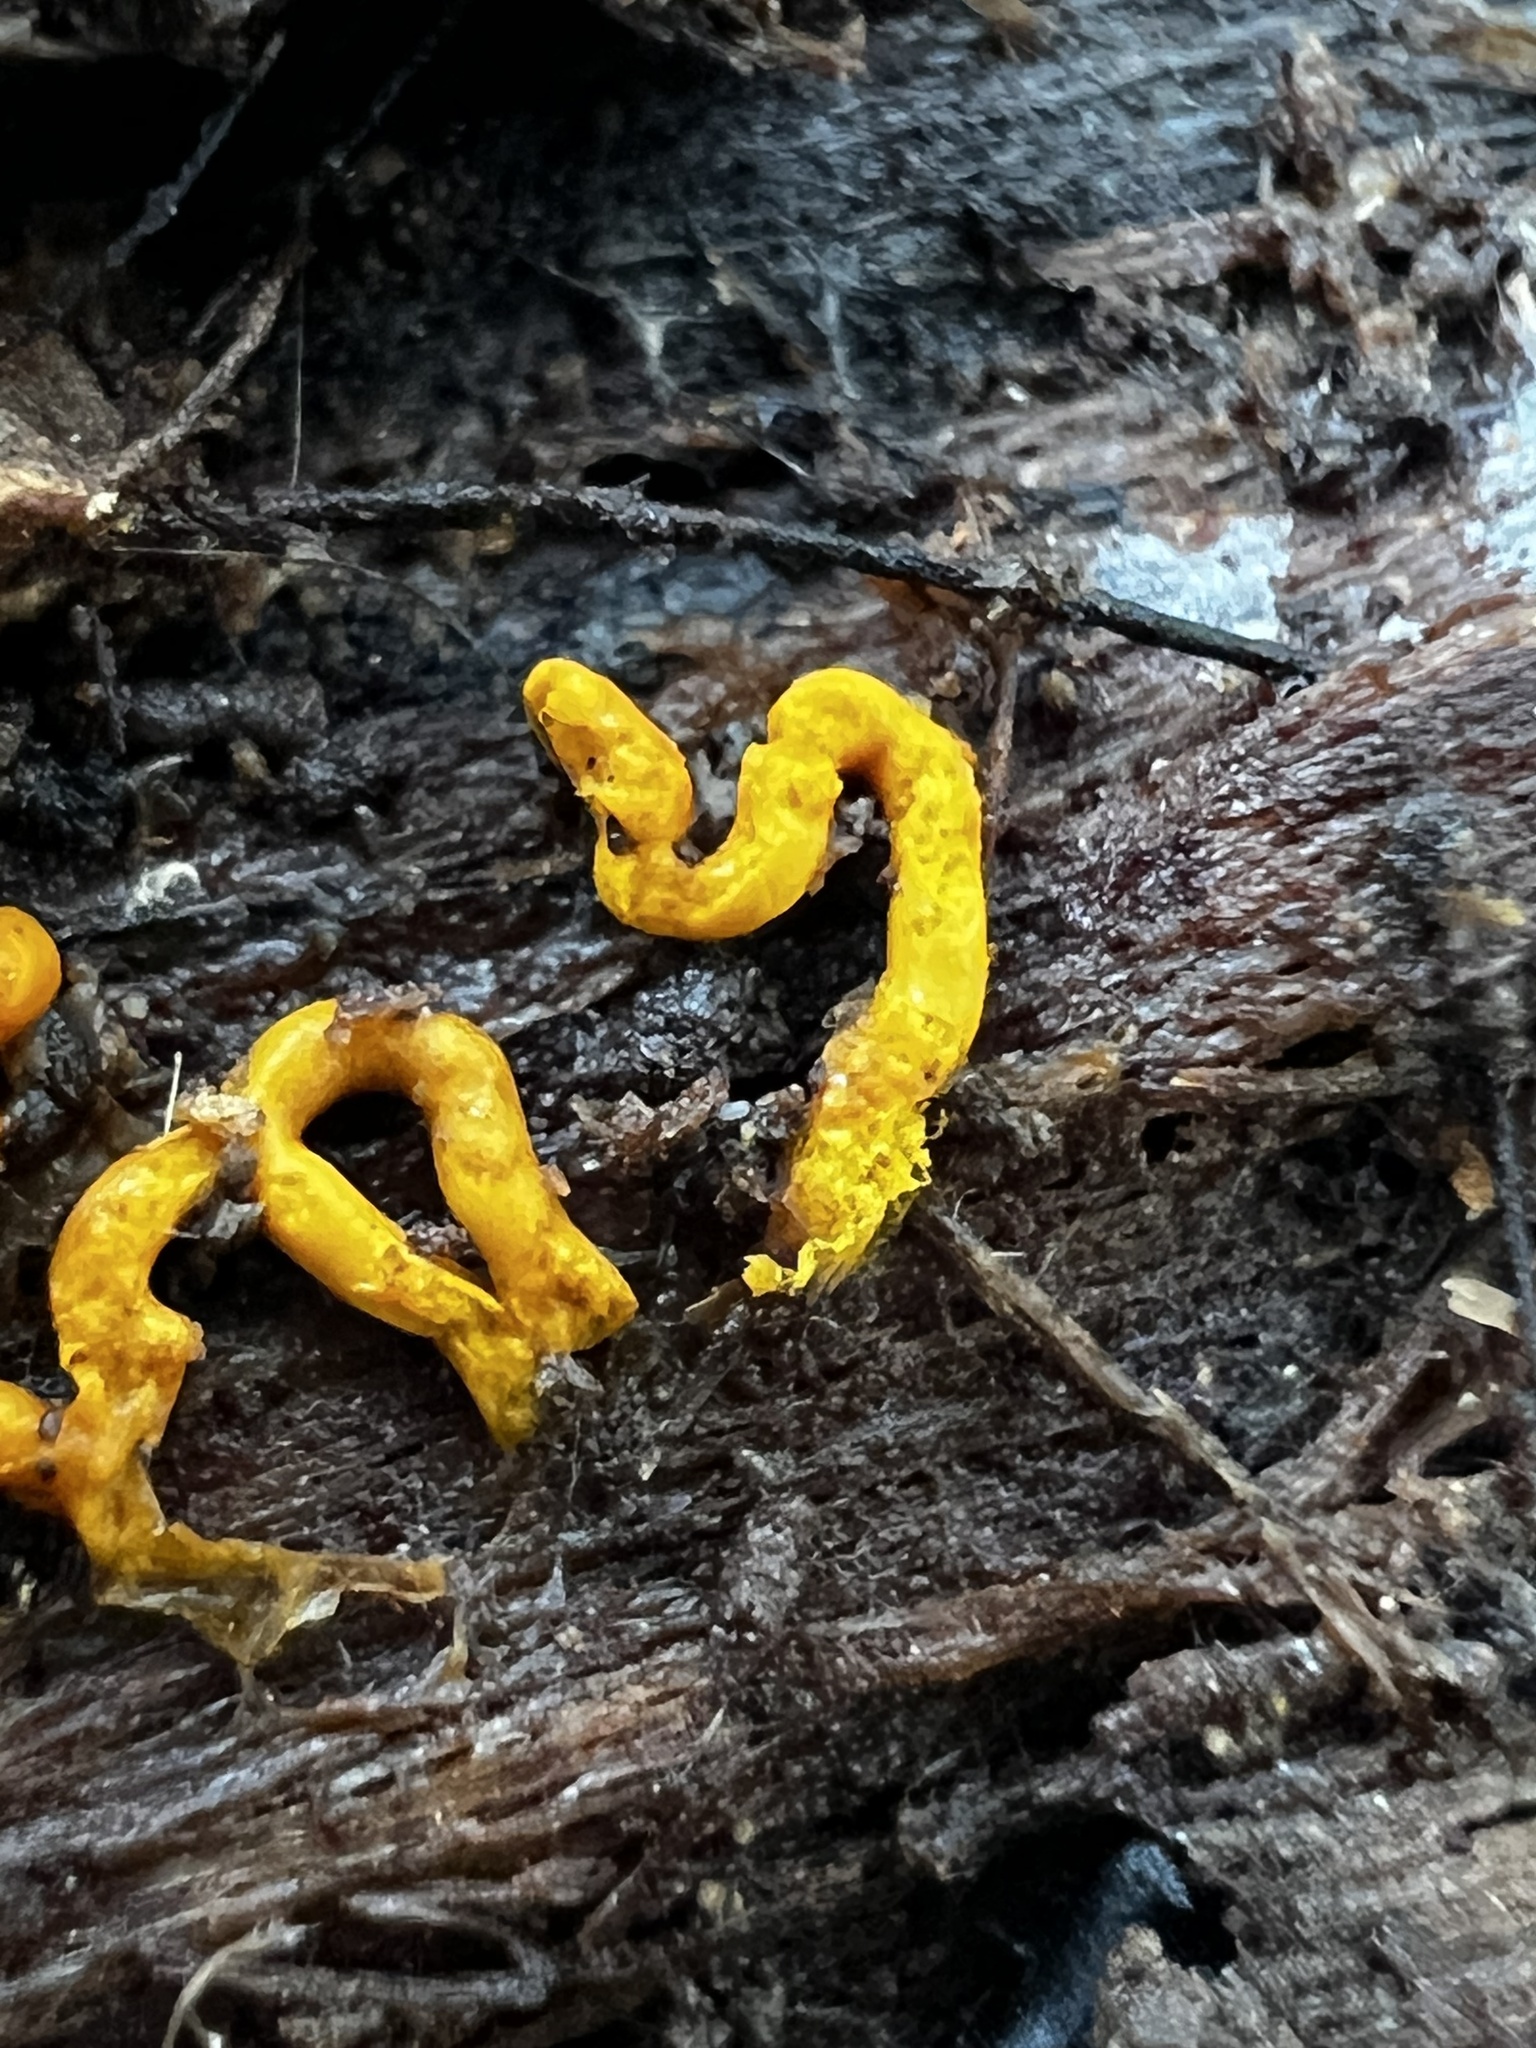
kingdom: Protozoa
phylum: Mycetozoa
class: Myxomycetes
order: Trichiales
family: Arcyriaceae
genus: Hemitrichia
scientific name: Hemitrichia serpula
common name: Pretzel slime mold
